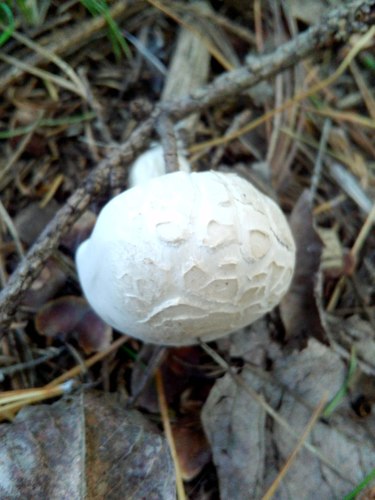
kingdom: Fungi
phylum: Basidiomycota
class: Agaricomycetes
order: Agaricales
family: Hygrophoraceae
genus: Hygrophorus
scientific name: Hygrophorus
